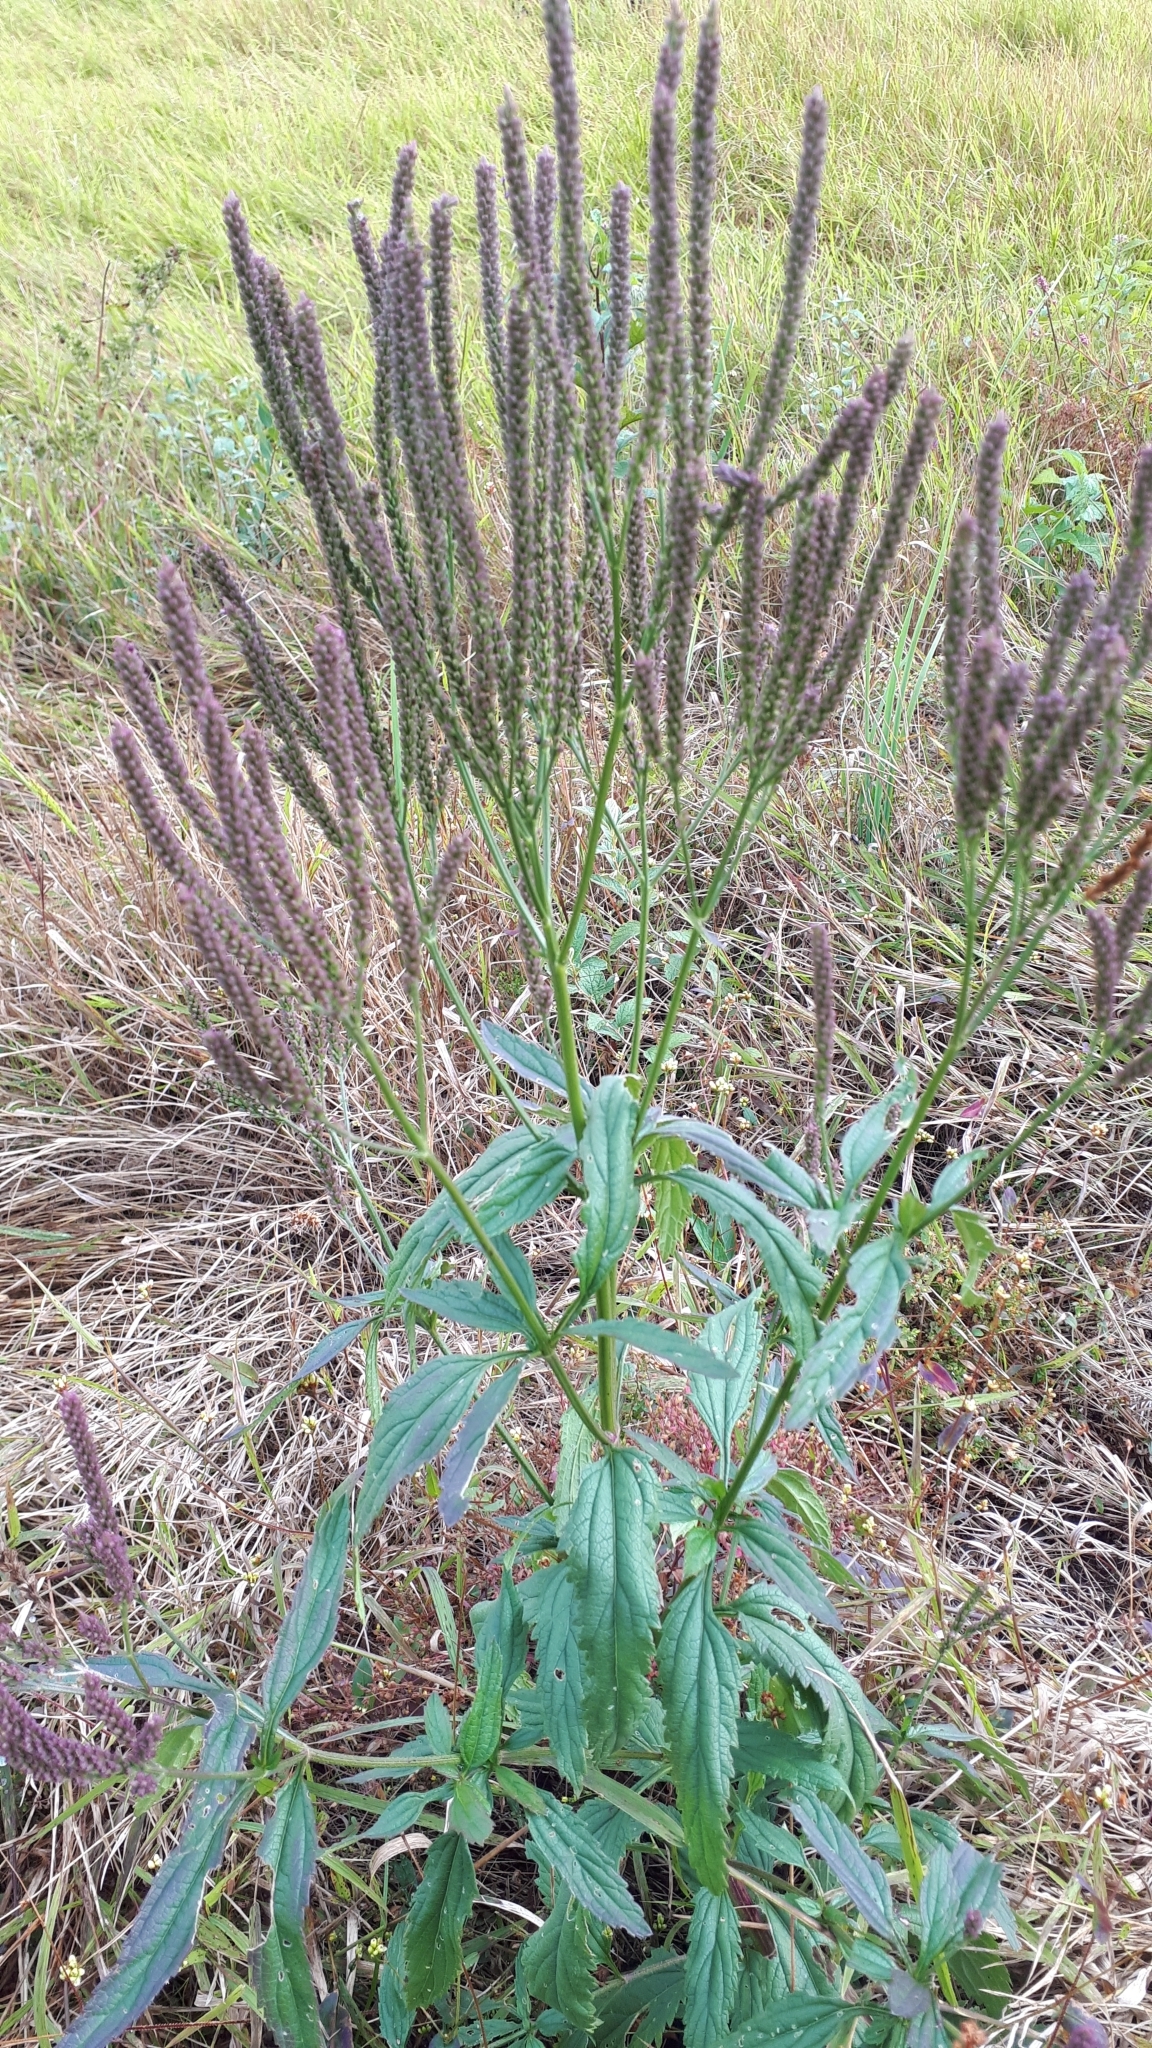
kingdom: Plantae
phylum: Tracheophyta
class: Magnoliopsida
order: Lamiales
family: Verbenaceae
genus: Verbena
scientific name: Verbena hastata
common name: American blue vervain
